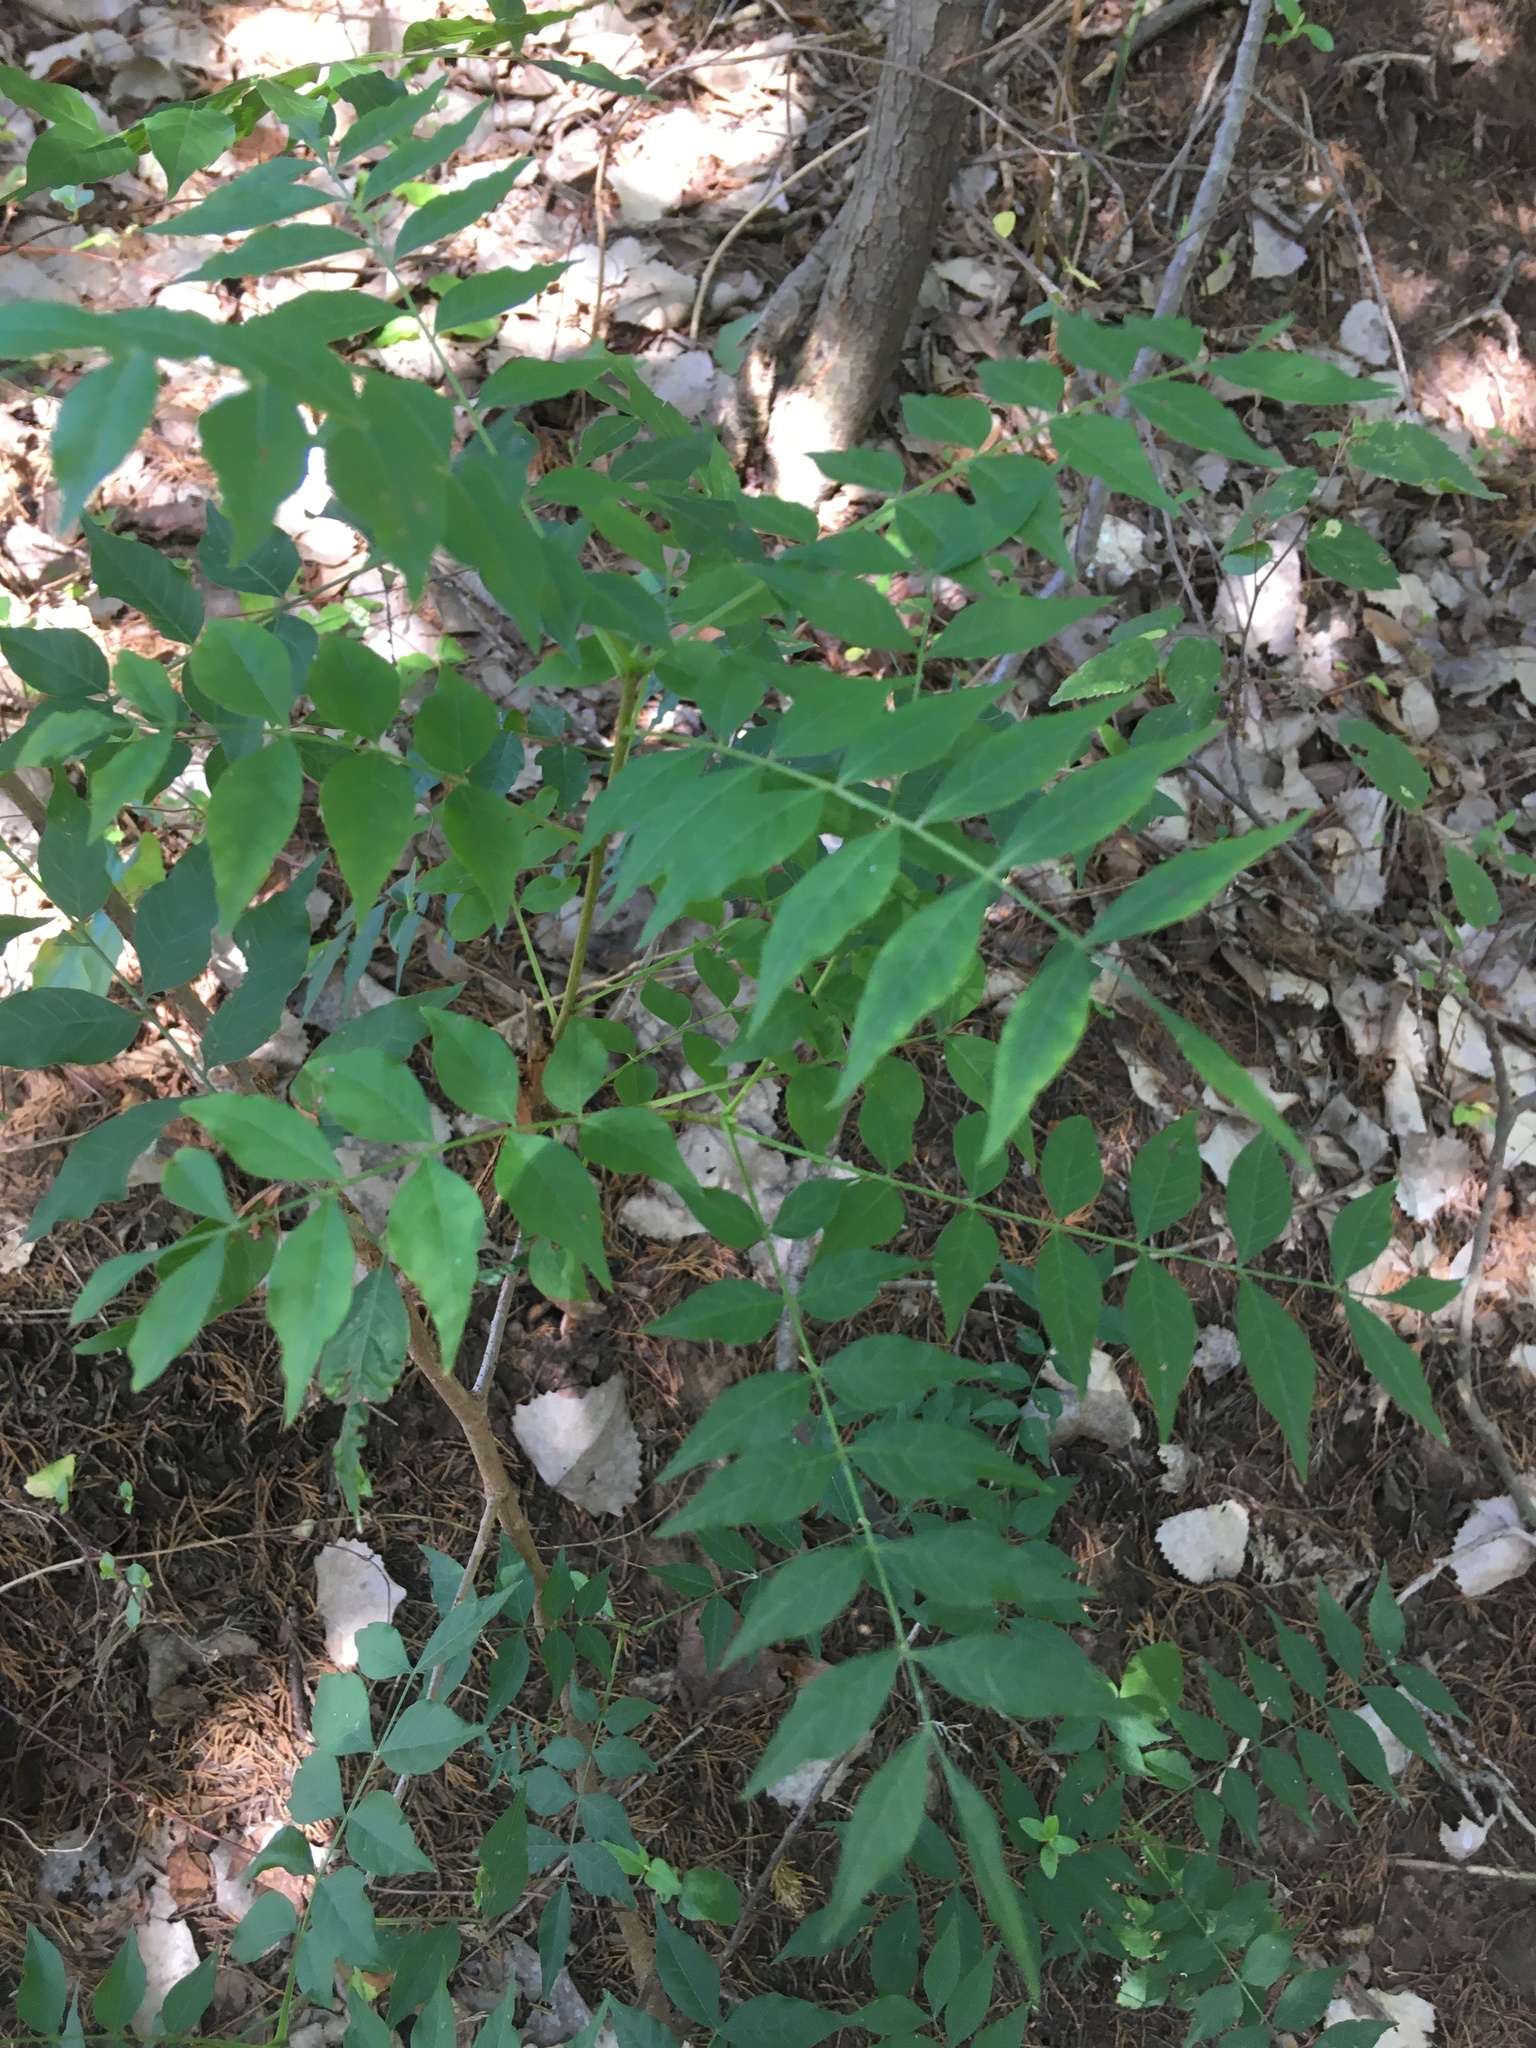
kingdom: Plantae
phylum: Tracheophyta
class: Magnoliopsida
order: Sapindales
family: Anacardiaceae
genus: Pistacia
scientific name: Pistacia chinensis
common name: Chinese pistache
